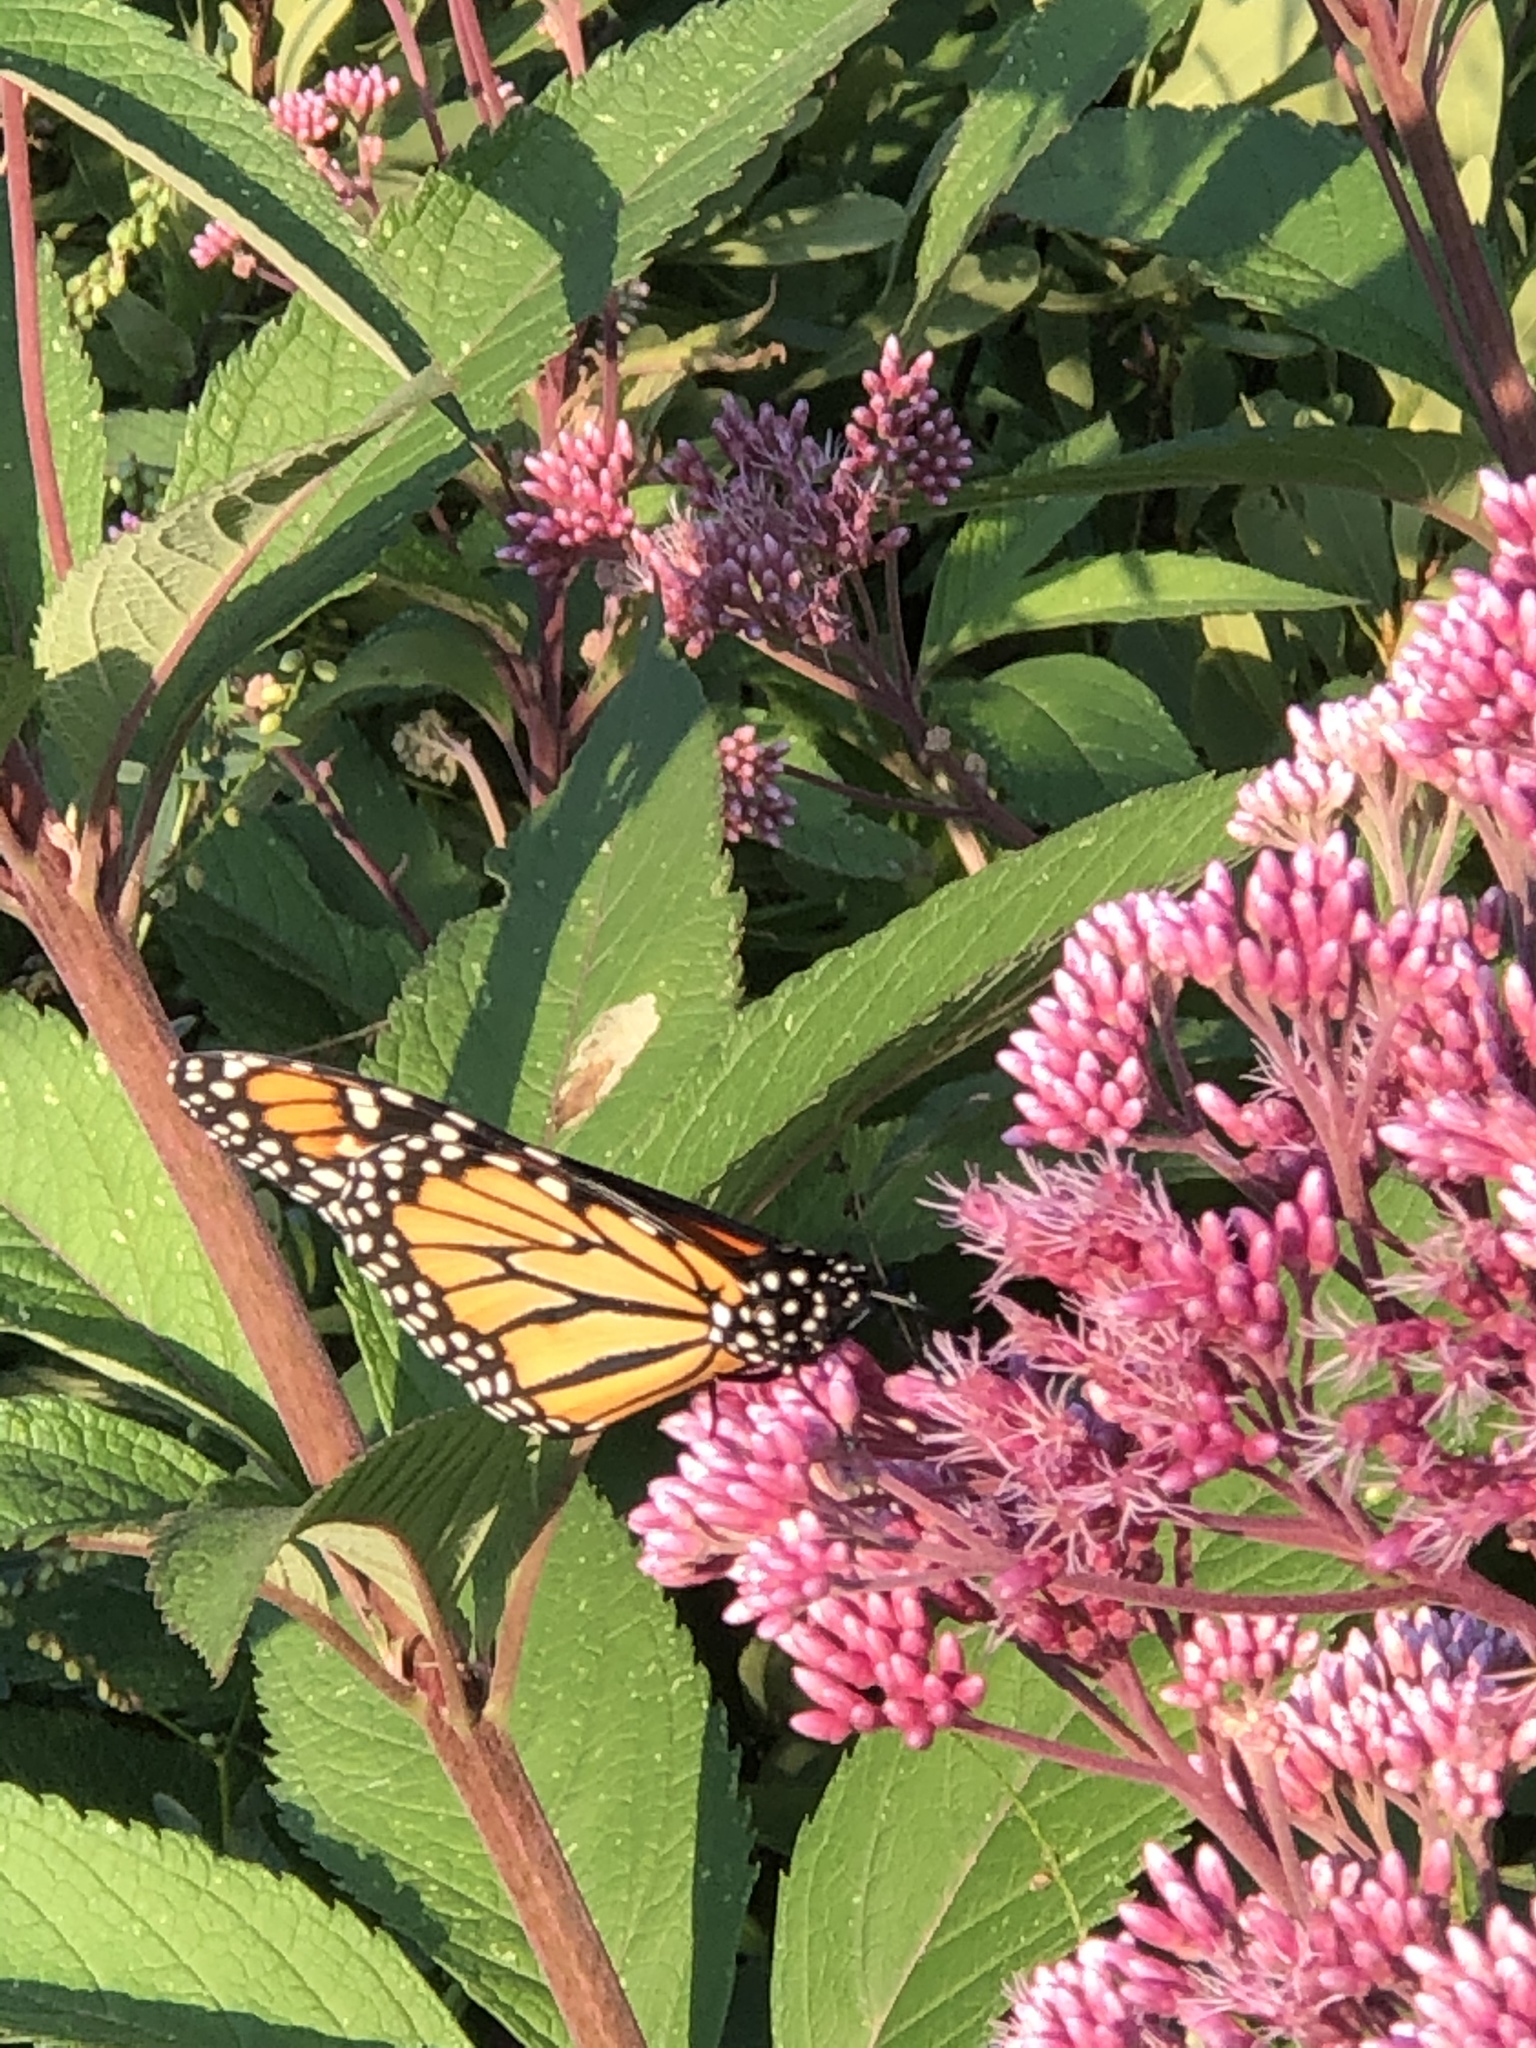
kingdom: Animalia
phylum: Arthropoda
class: Insecta
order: Lepidoptera
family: Nymphalidae
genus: Danaus
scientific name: Danaus plexippus
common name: Monarch
